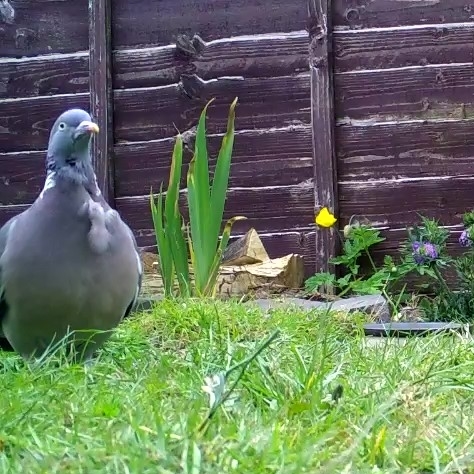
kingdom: Animalia
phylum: Chordata
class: Aves
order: Columbiformes
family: Columbidae
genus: Columba
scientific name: Columba palumbus
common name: Common wood pigeon
